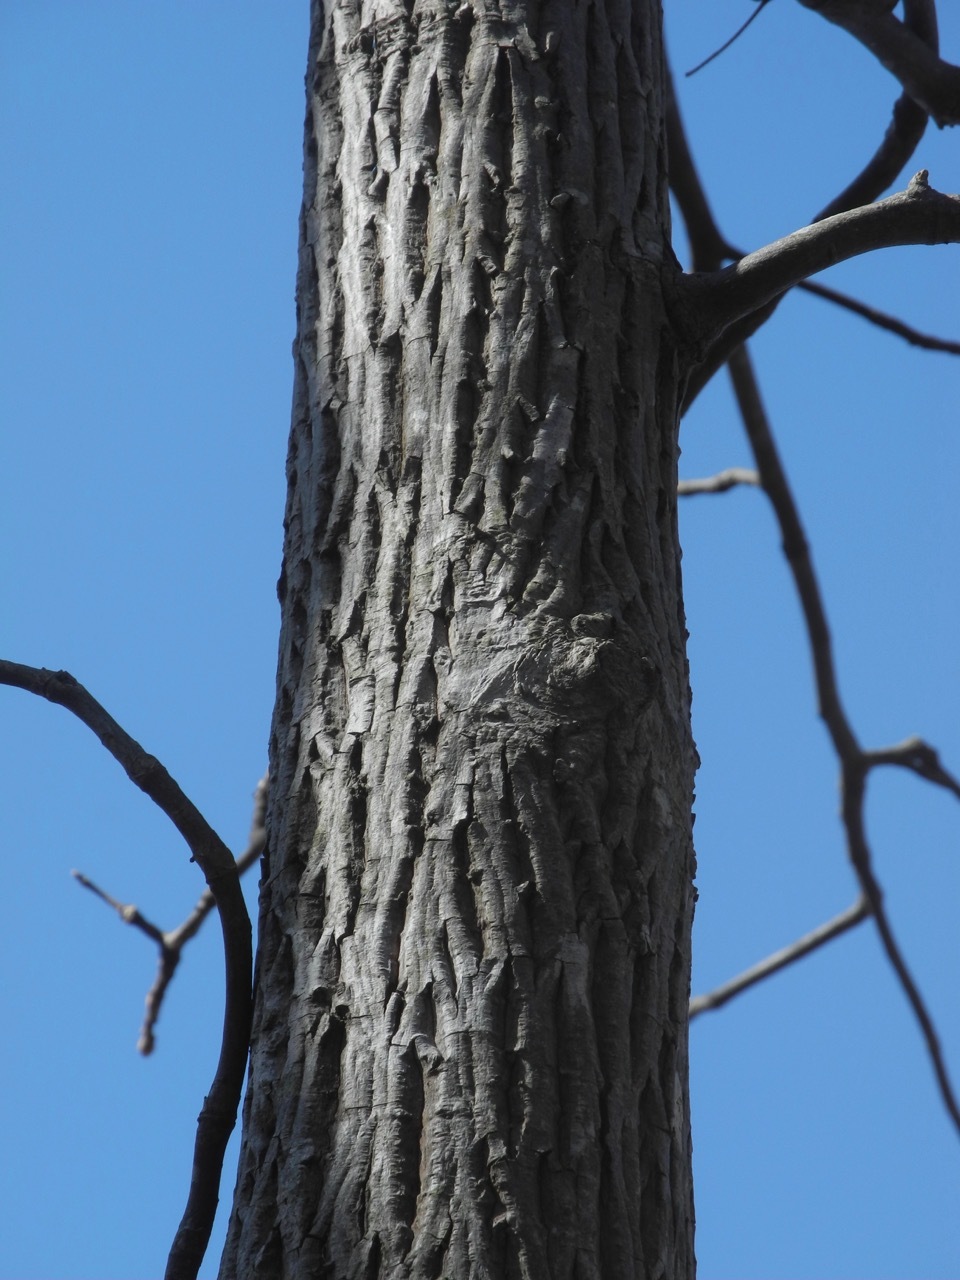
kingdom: Plantae
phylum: Tracheophyta
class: Magnoliopsida
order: Fagales
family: Juglandaceae
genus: Carya
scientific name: Carya alba
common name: Mockernut hickory
